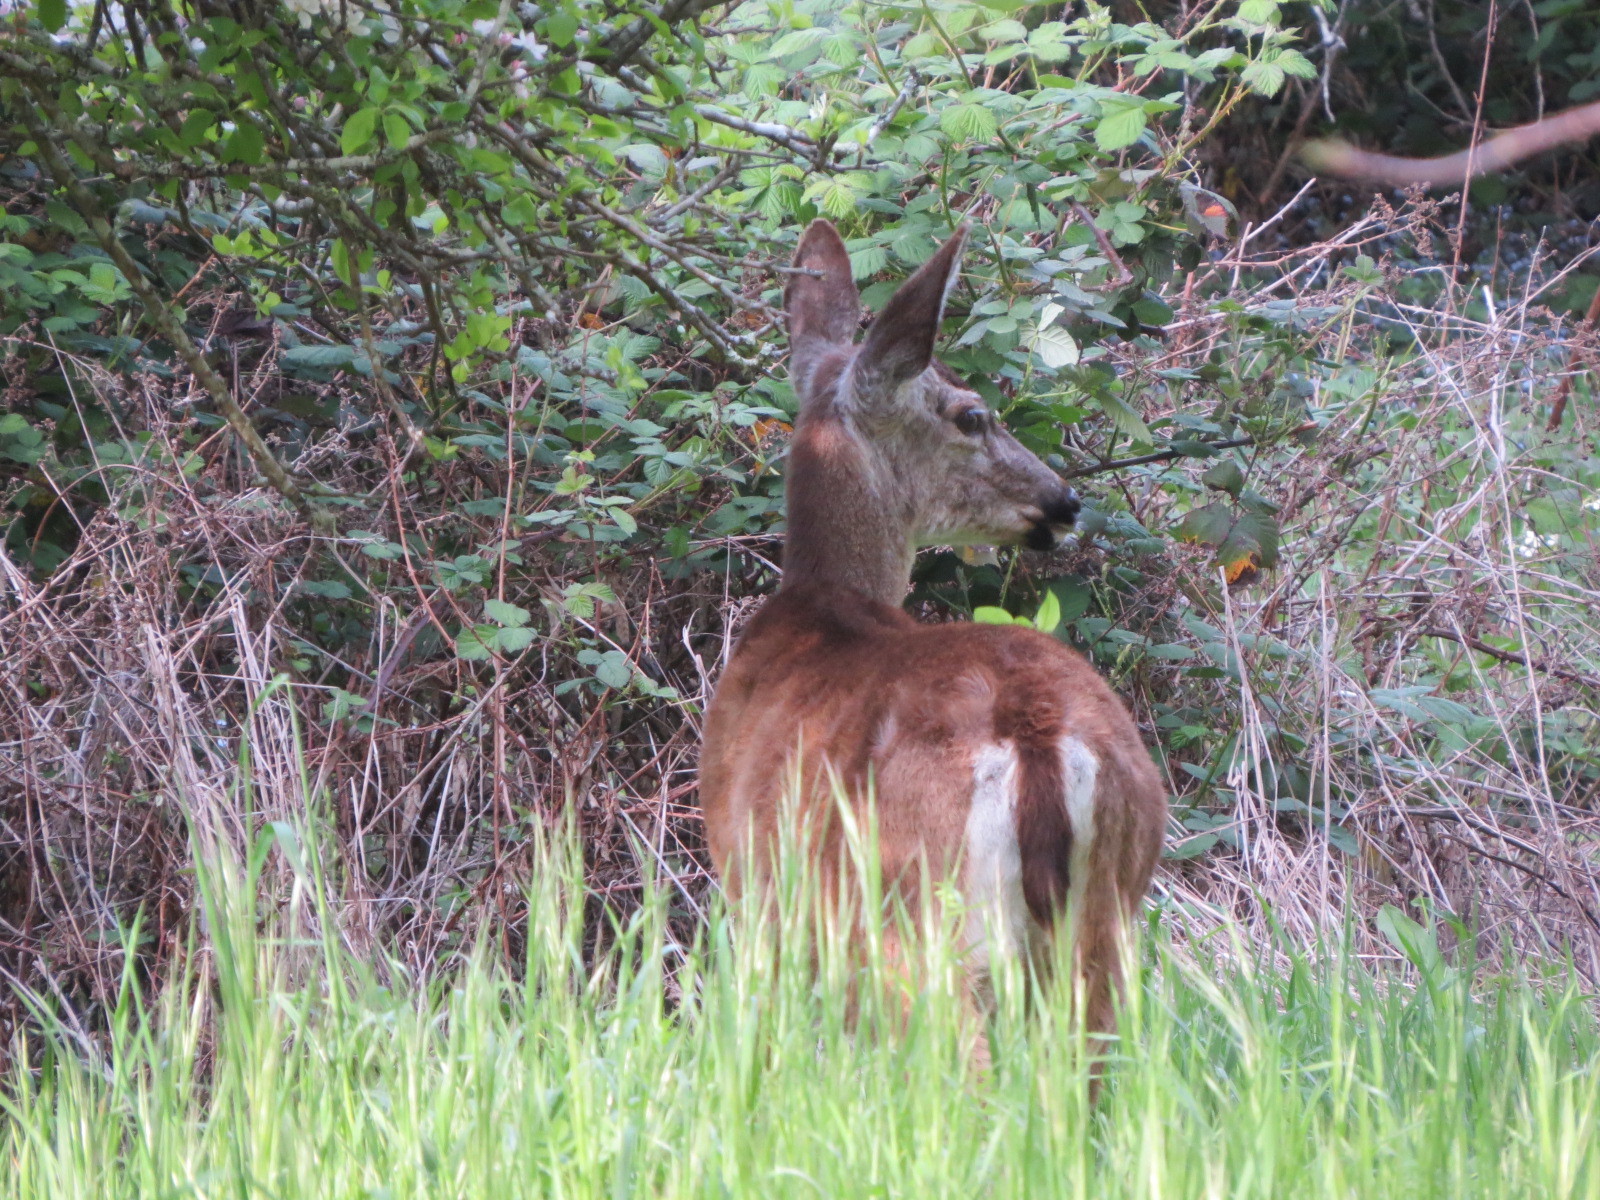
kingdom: Animalia
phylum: Chordata
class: Mammalia
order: Artiodactyla
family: Cervidae
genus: Odocoileus
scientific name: Odocoileus hemionus
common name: Mule deer
